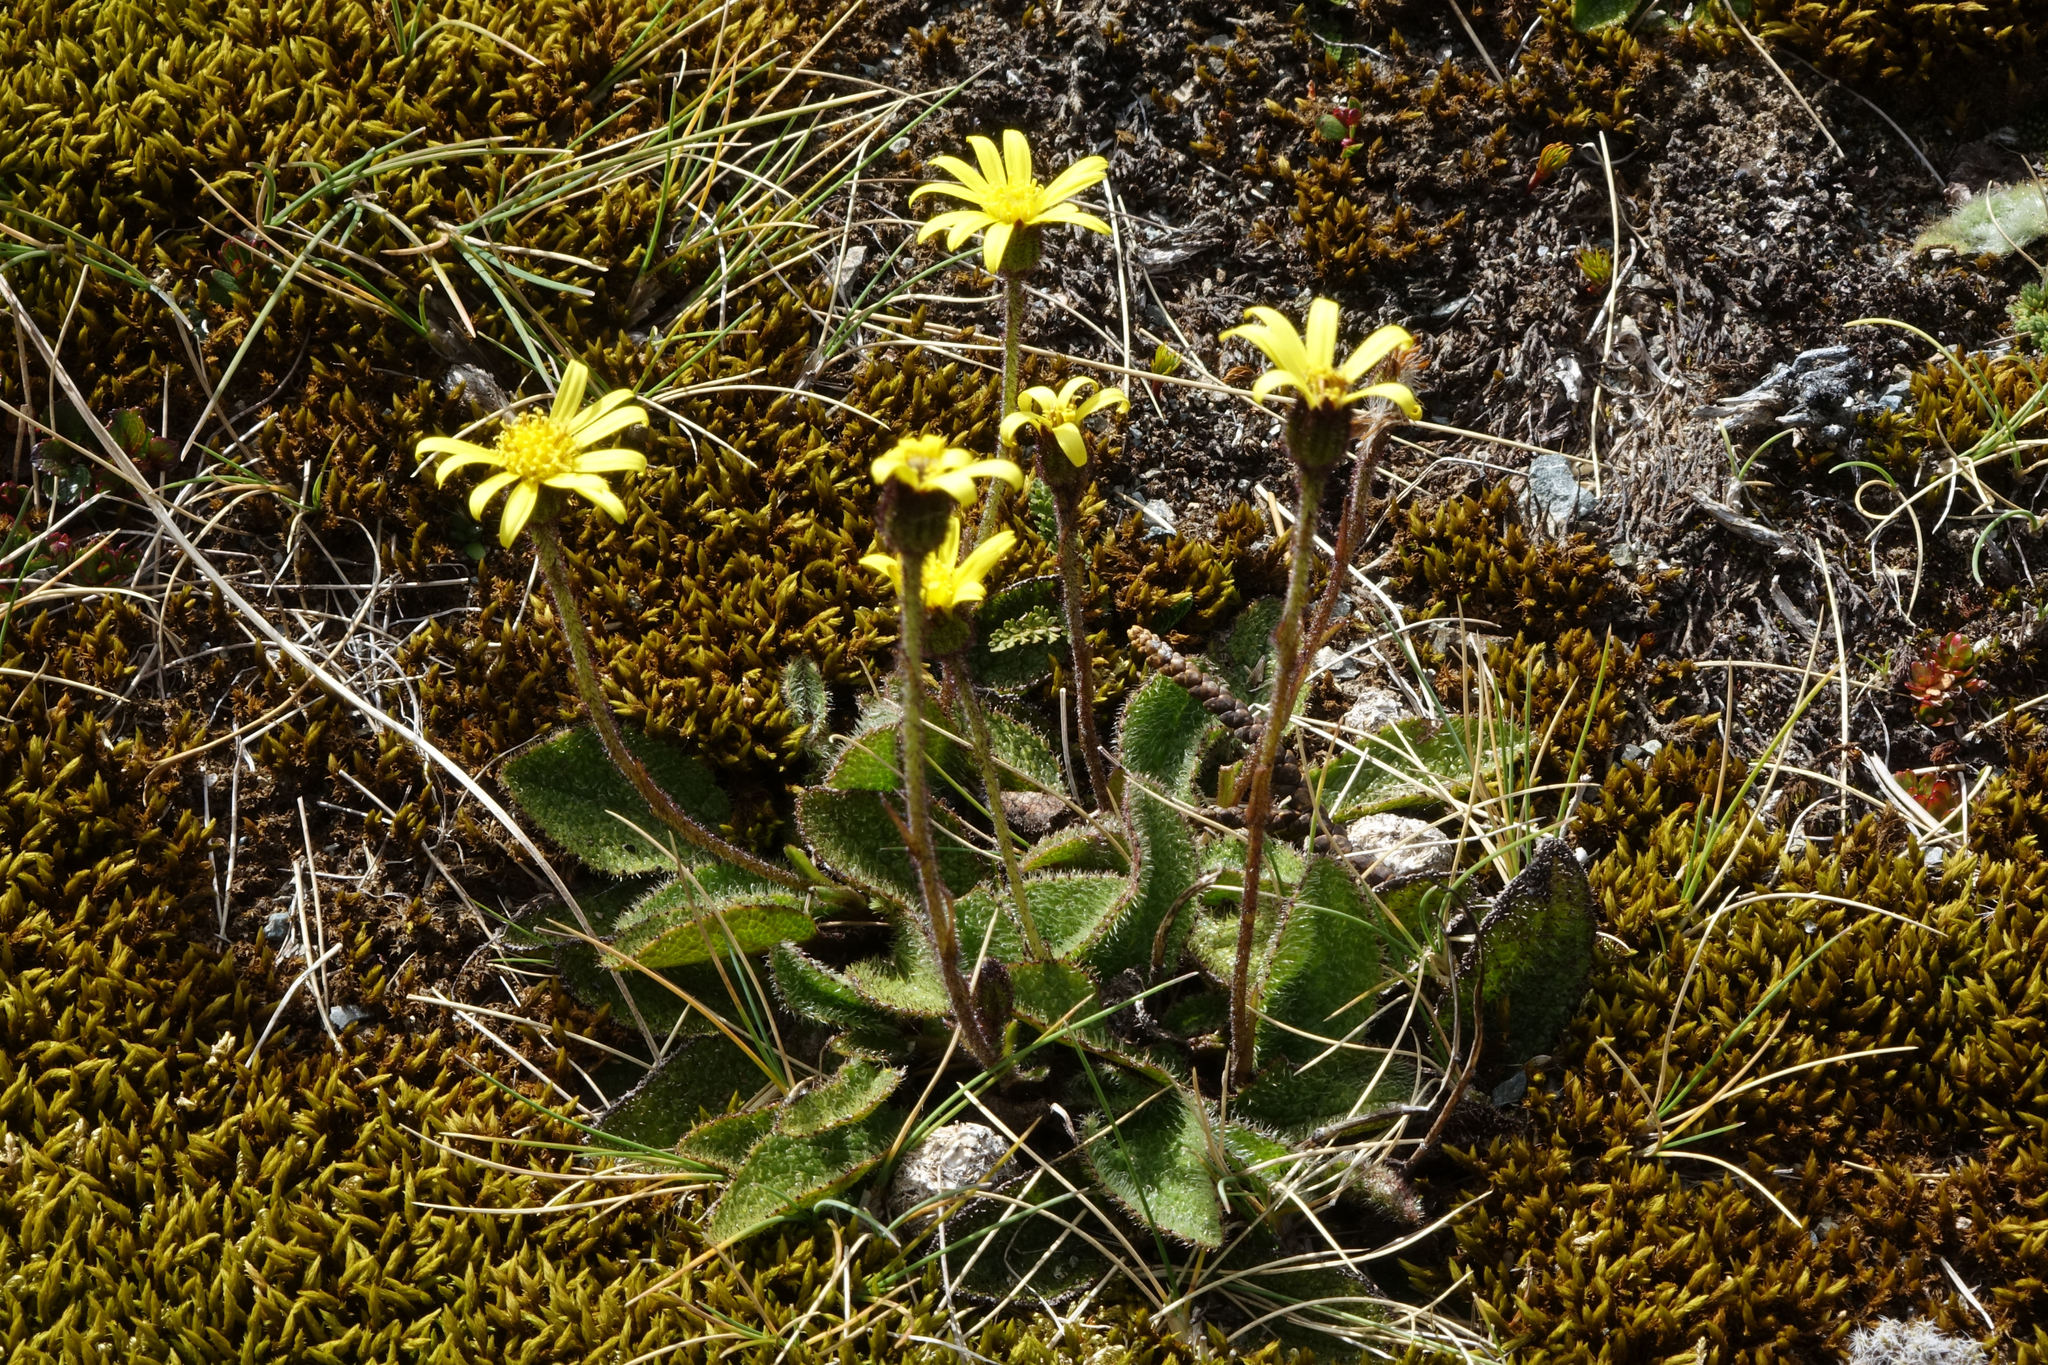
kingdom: Plantae
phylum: Tracheophyta
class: Magnoliopsida
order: Asterales
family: Asteraceae
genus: Brachyglottis
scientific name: Brachyglottis bellidioides
